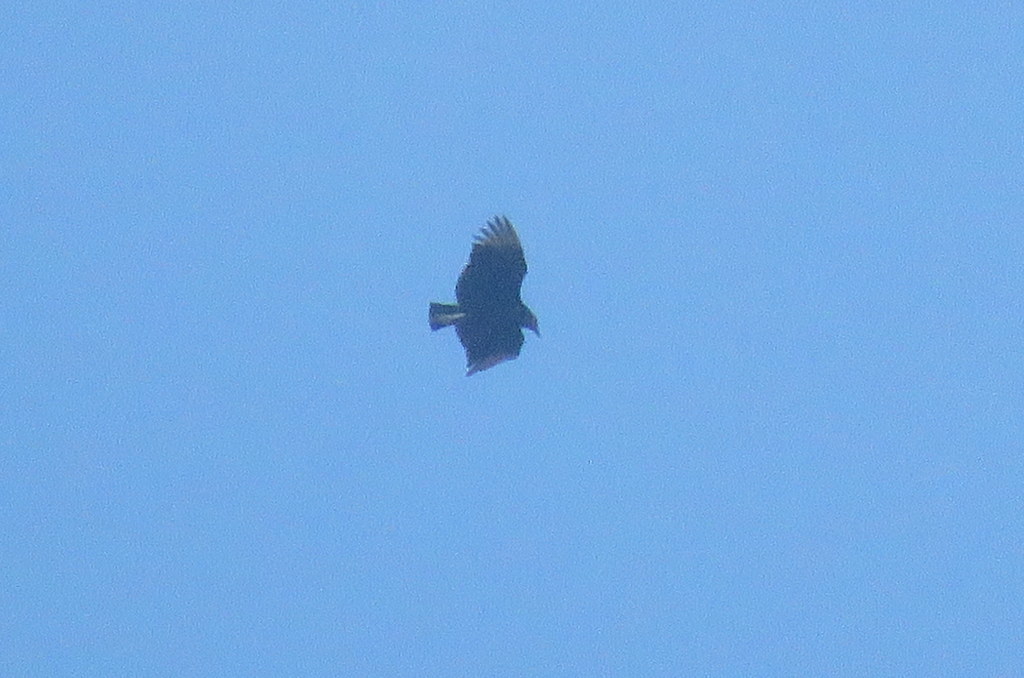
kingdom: Animalia
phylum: Chordata
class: Aves
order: Accipitriformes
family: Cathartidae
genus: Coragyps
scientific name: Coragyps atratus
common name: Black vulture
